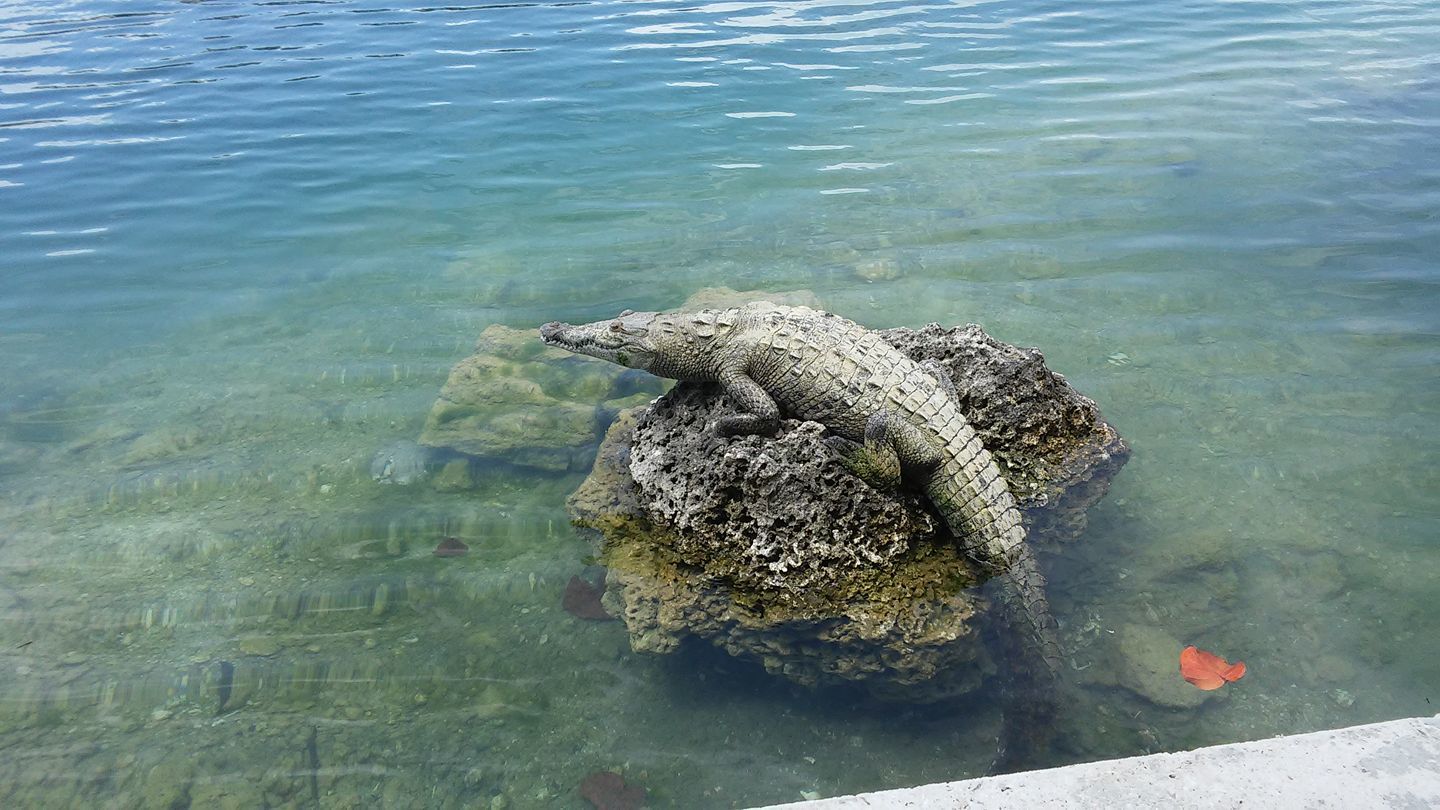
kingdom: Animalia
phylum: Chordata
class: Crocodylia
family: Crocodylidae
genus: Crocodylus
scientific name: Crocodylus acutus
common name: American crocodile
